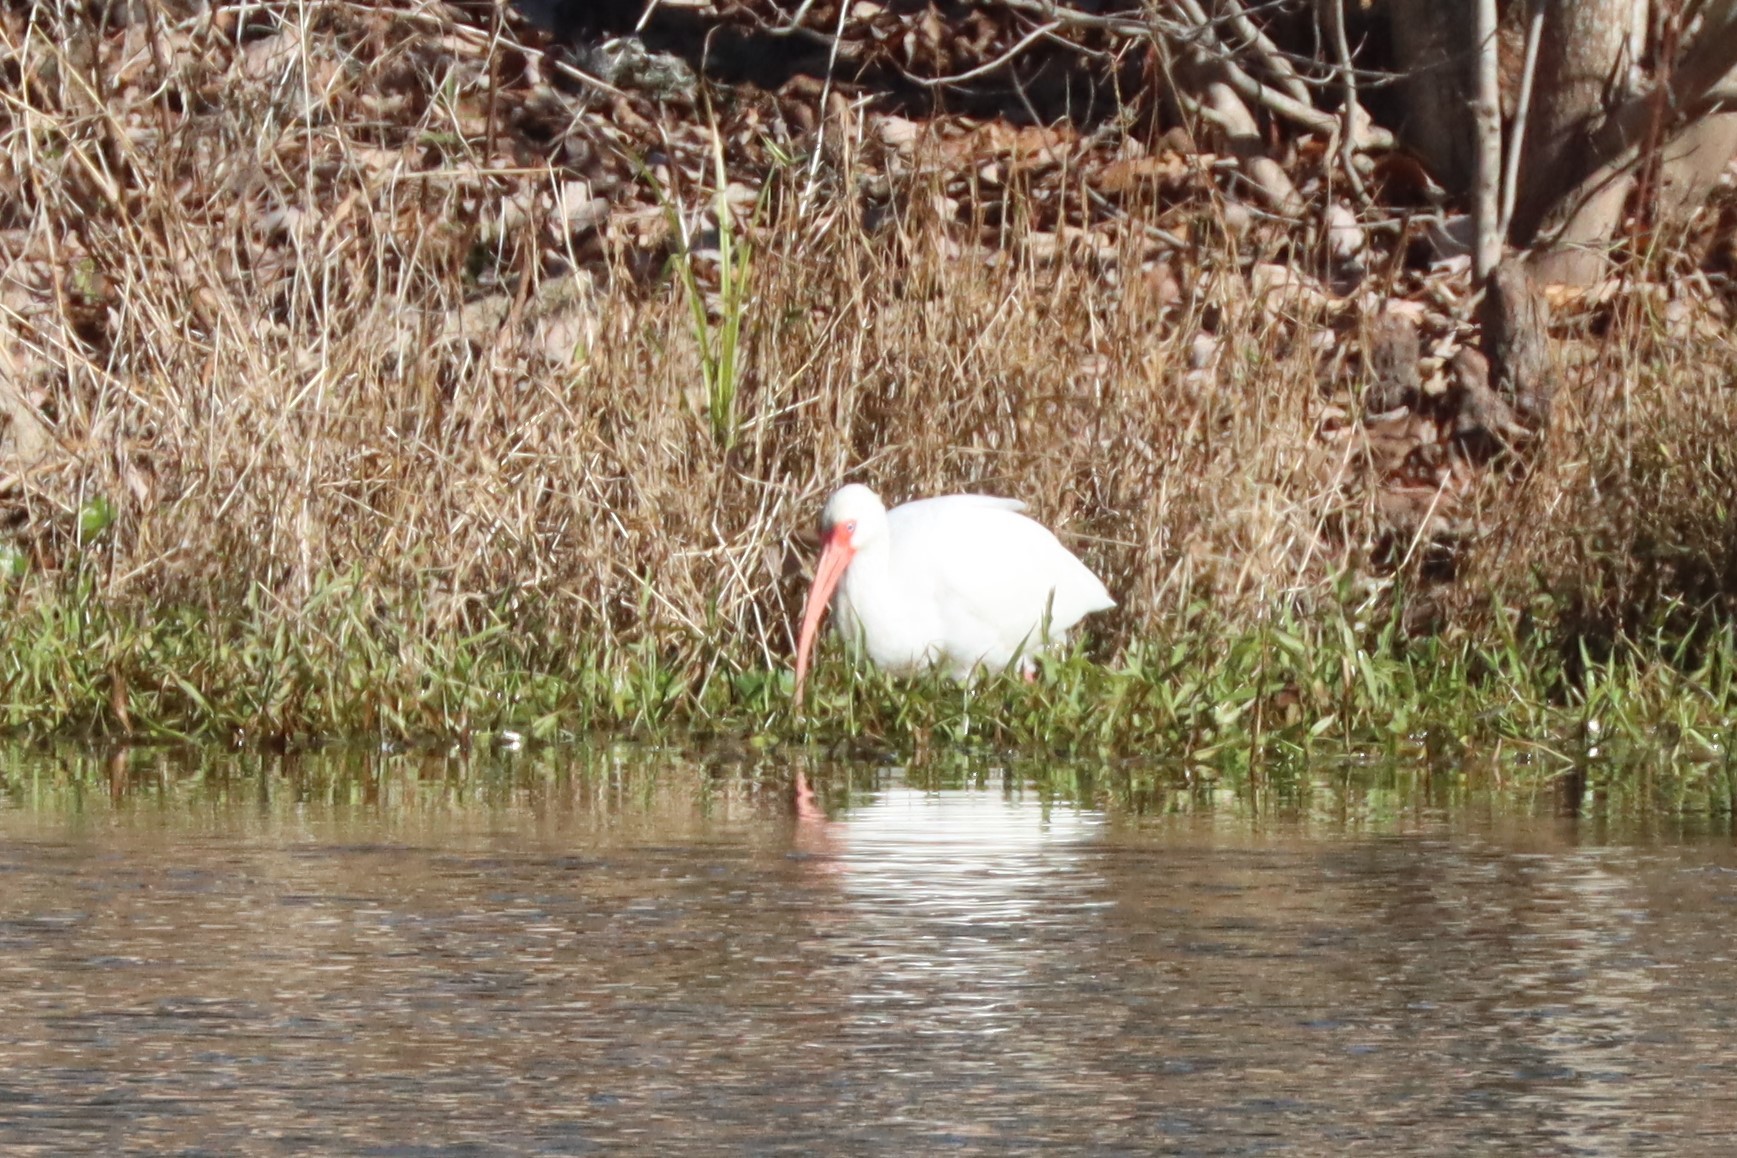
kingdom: Animalia
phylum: Chordata
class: Aves
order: Pelecaniformes
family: Threskiornithidae
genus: Eudocimus
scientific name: Eudocimus albus
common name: White ibis
